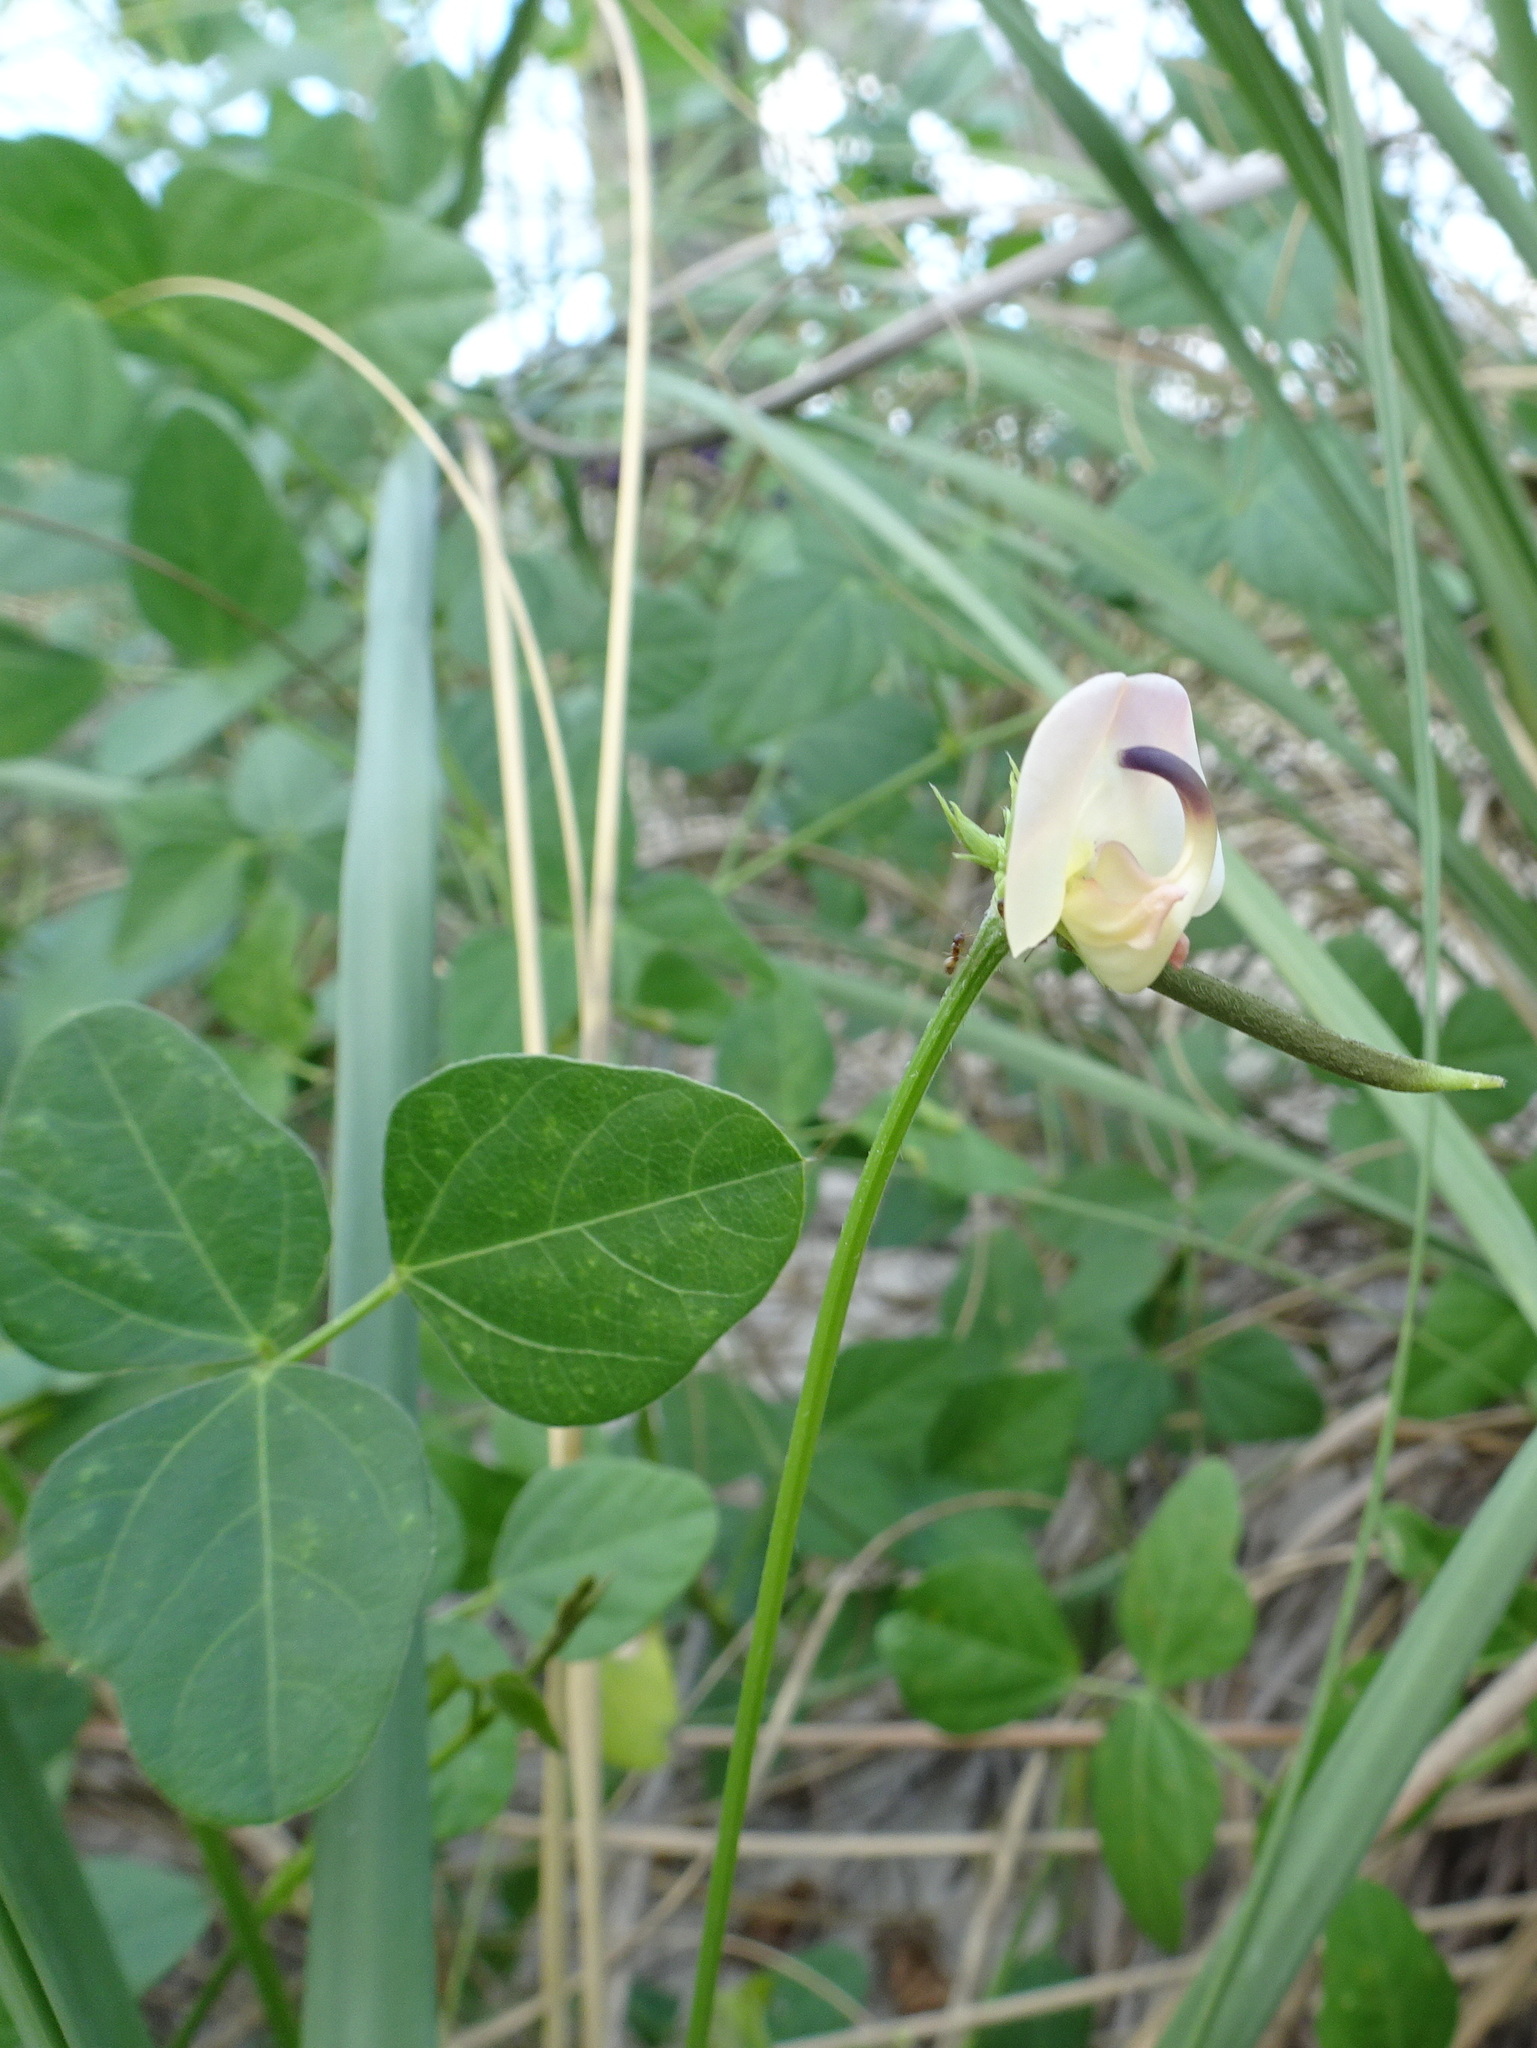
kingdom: Plantae
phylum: Tracheophyta
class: Magnoliopsida
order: Fabales
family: Fabaceae
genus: Strophostyles
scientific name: Strophostyles helvola
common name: Trailing wild bean
